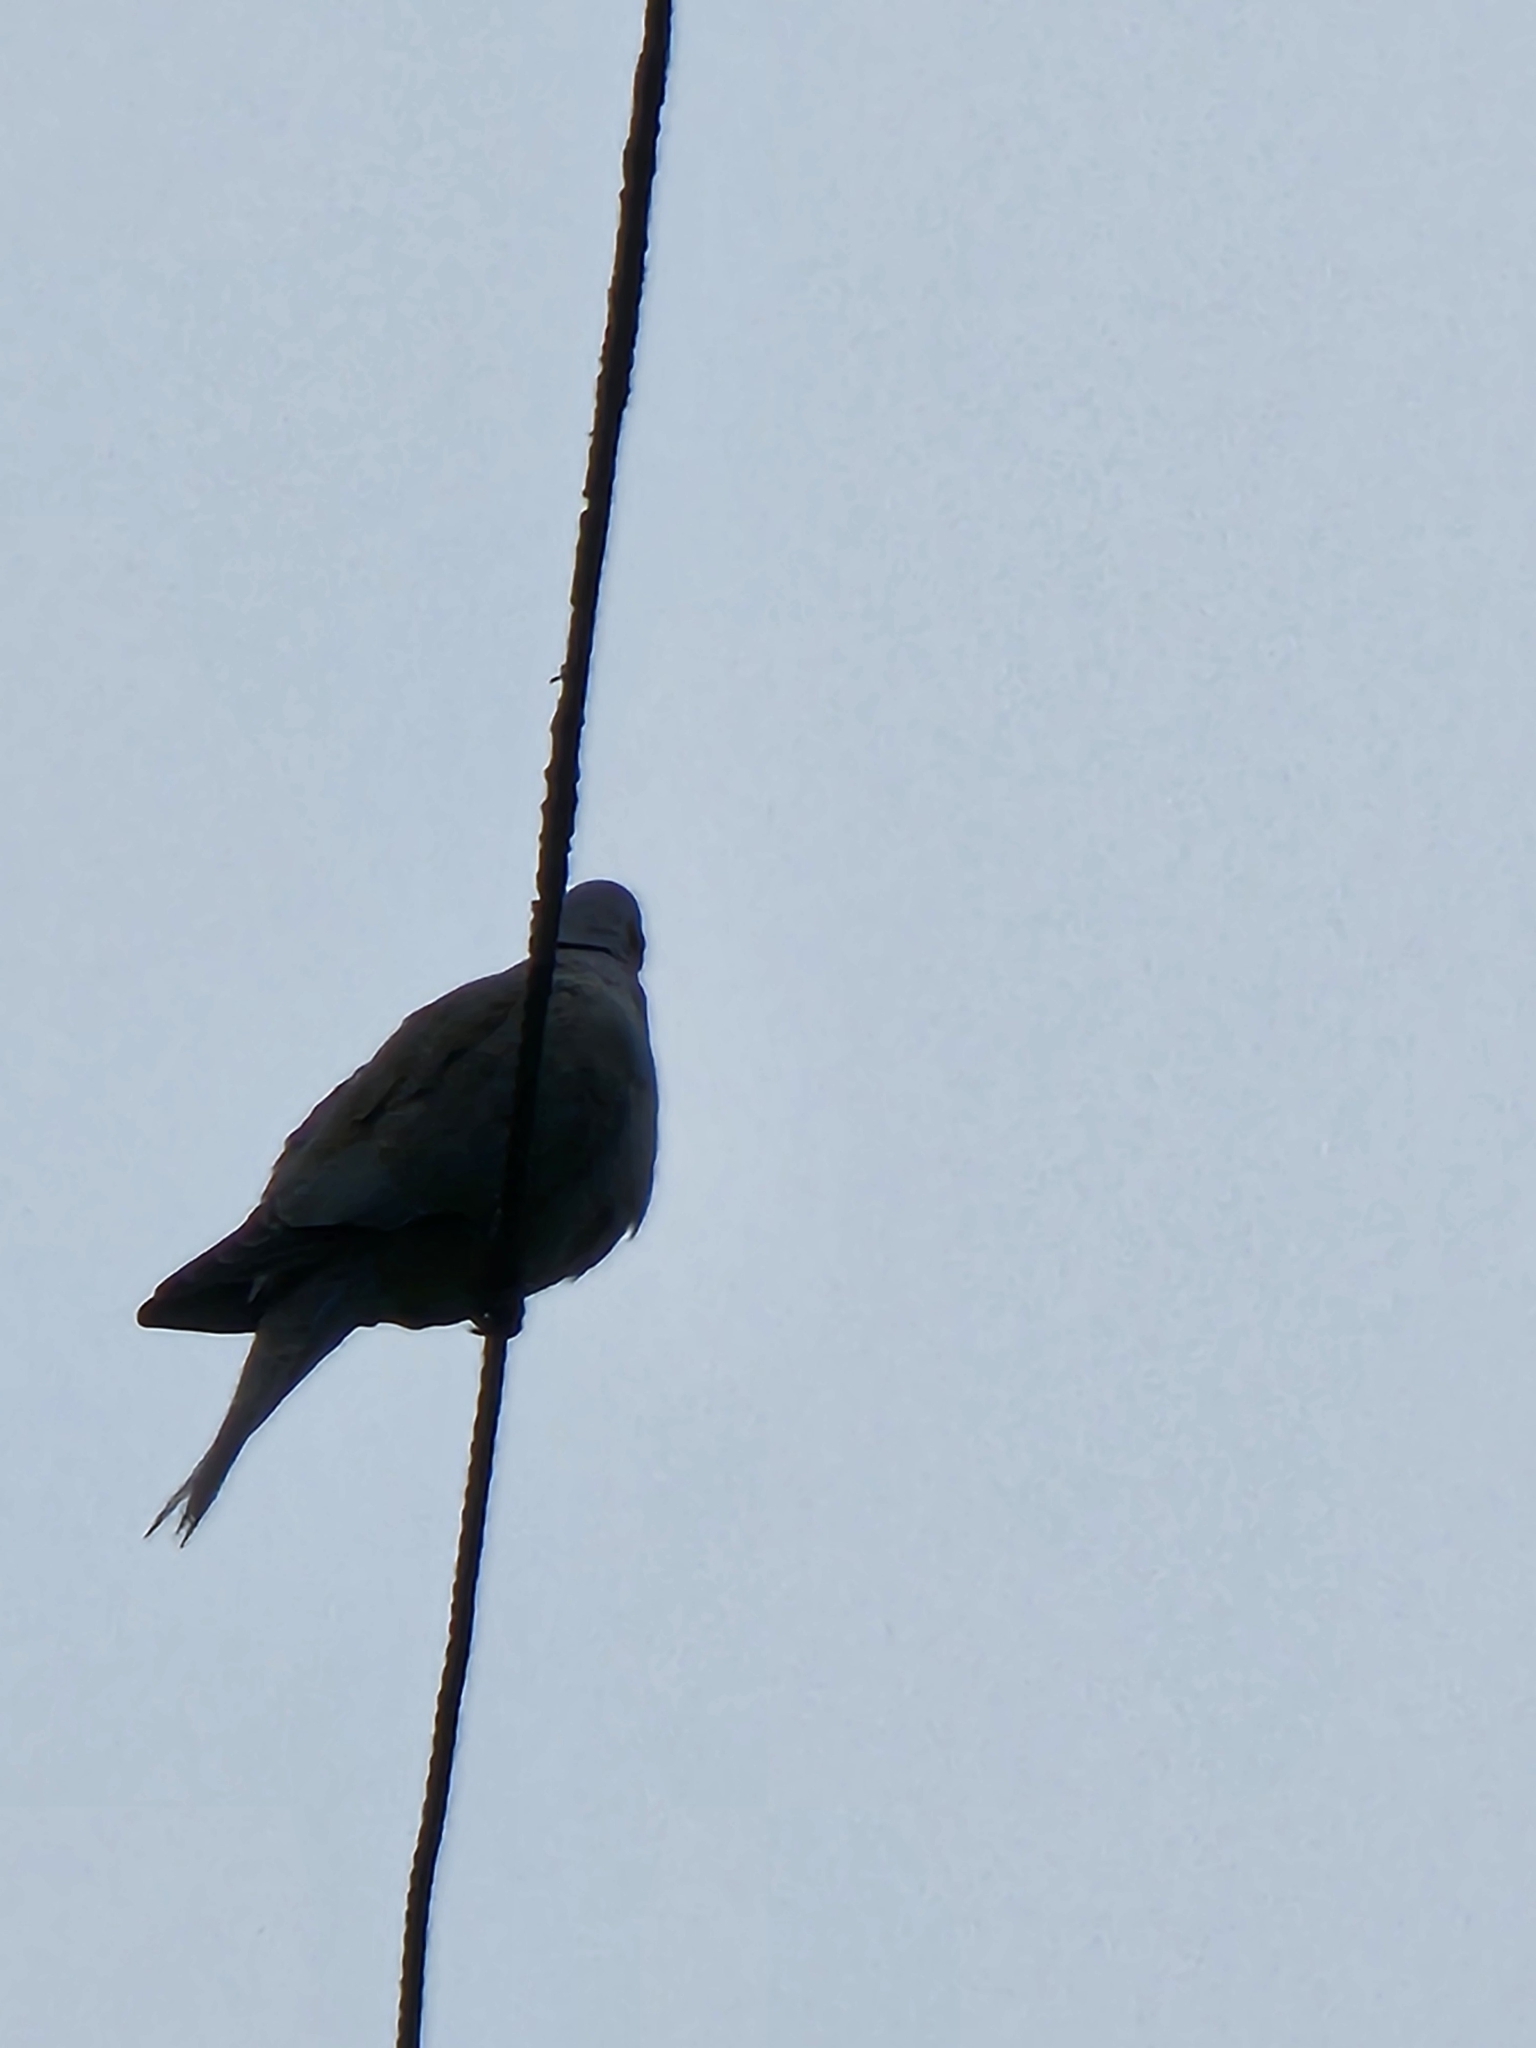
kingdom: Animalia
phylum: Chordata
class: Aves
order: Columbiformes
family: Columbidae
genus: Streptopelia
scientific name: Streptopelia decaocto
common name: Eurasian collared dove
